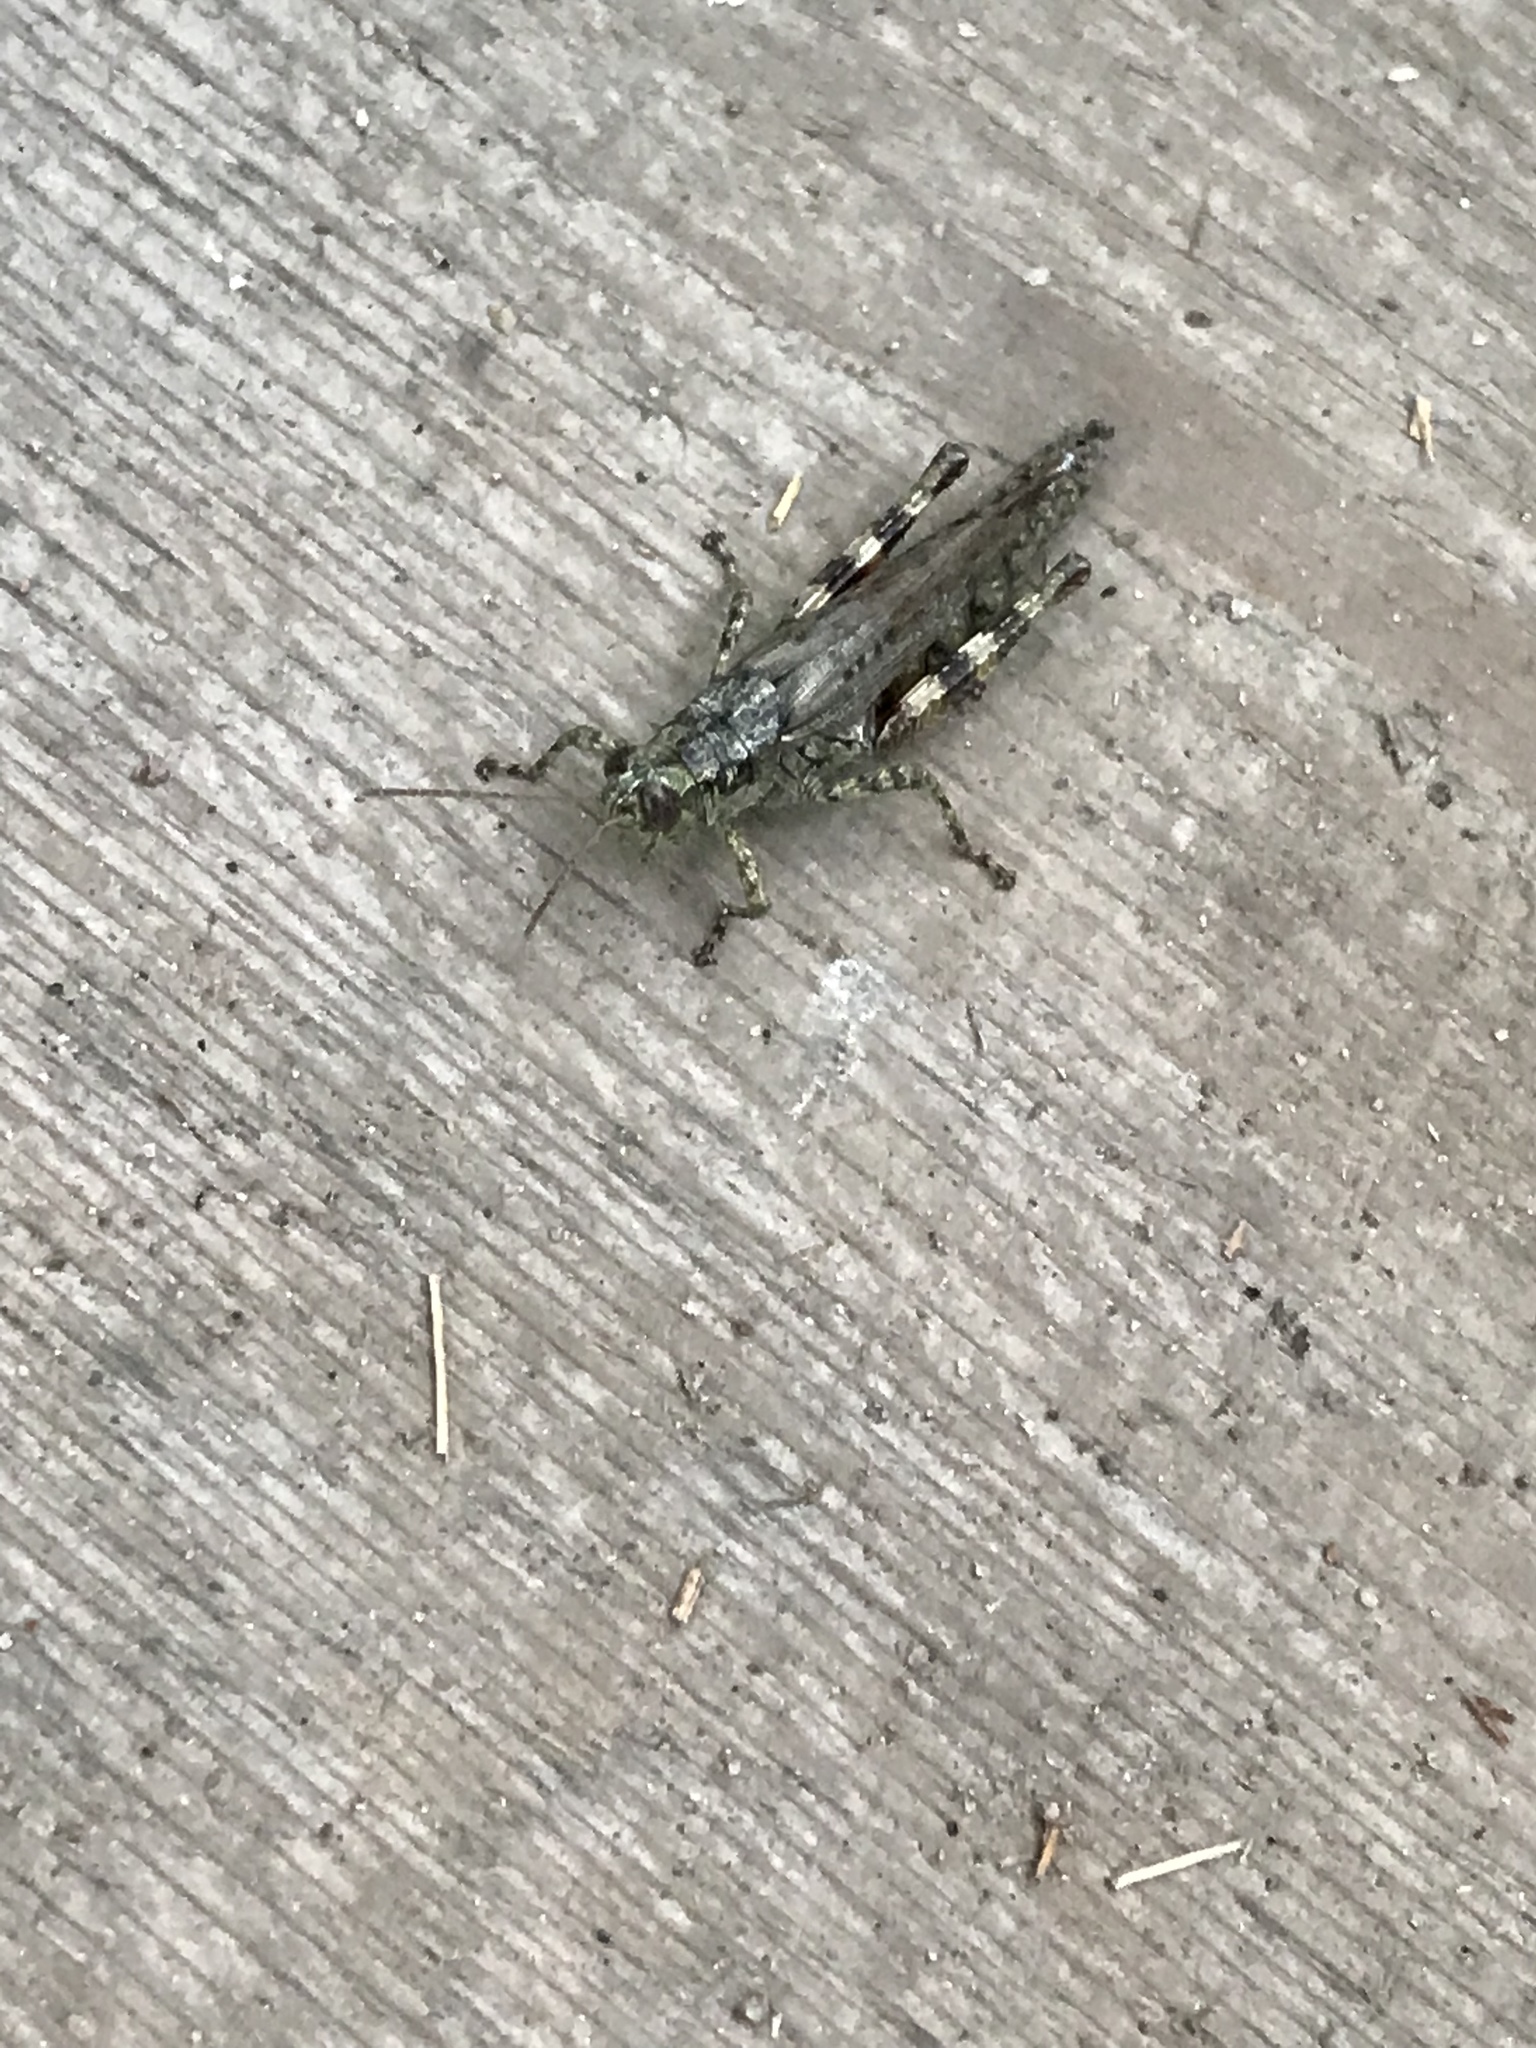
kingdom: Animalia
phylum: Arthropoda
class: Insecta
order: Orthoptera
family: Acrididae
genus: Melanoplus
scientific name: Melanoplus punctulatus
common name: Pine-tree spur-throat grasshopper
